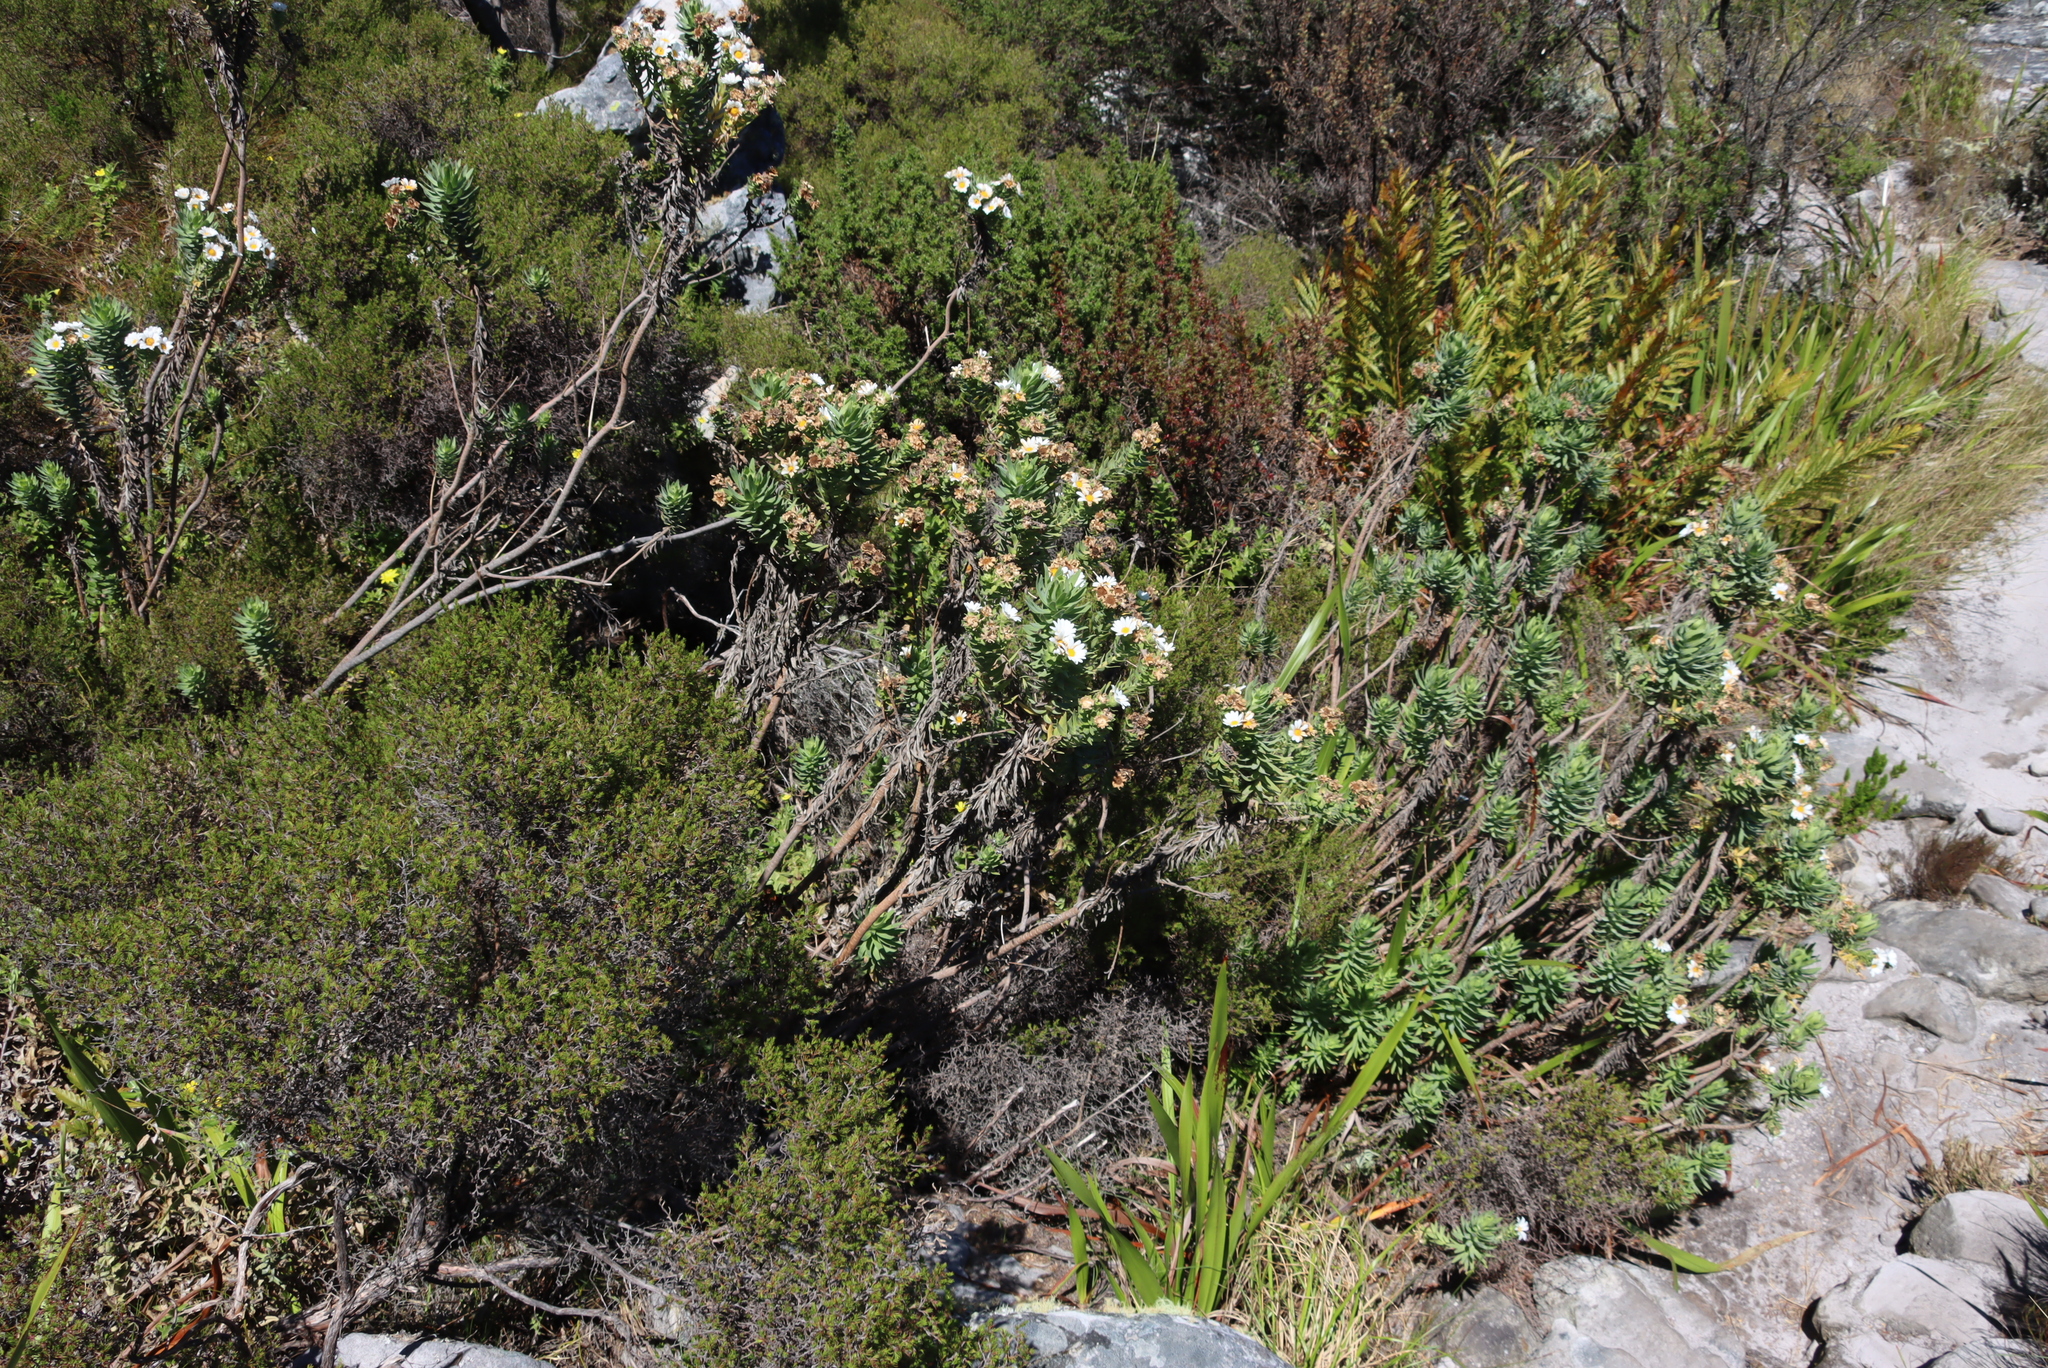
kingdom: Plantae
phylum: Tracheophyta
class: Magnoliopsida
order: Asterales
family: Asteraceae
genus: Osmitopsis
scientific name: Osmitopsis asteriscoides
